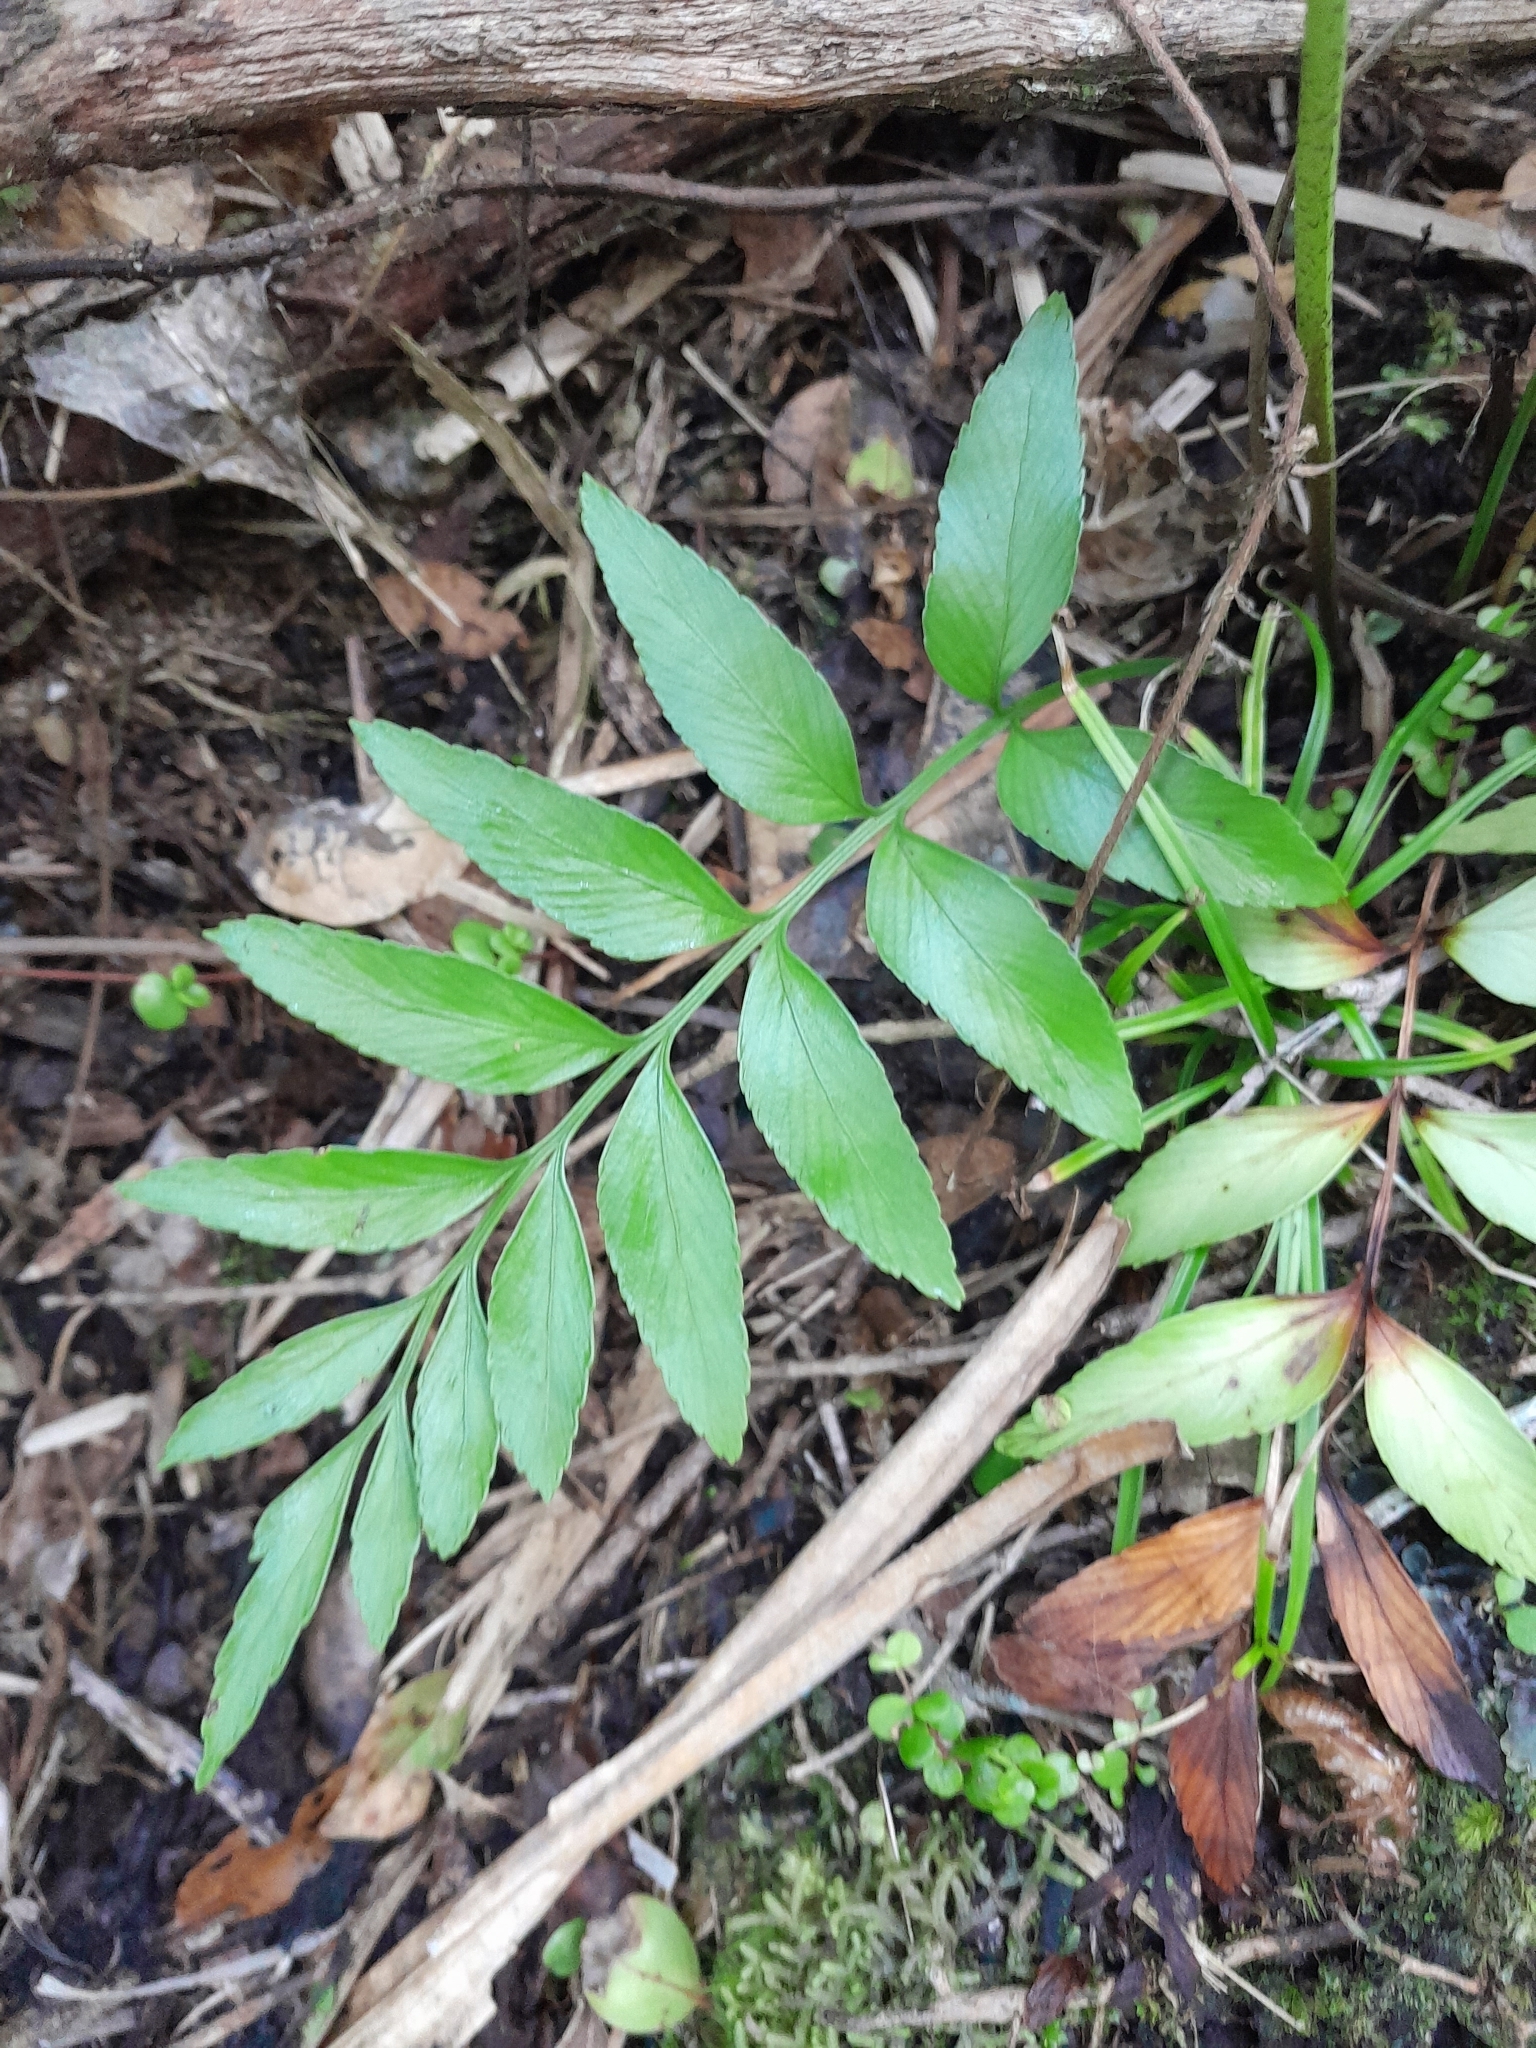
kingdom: Plantae
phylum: Tracheophyta
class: Polypodiopsida
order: Polypodiales
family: Aspleniaceae
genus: Asplenium
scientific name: Asplenium oblongifolium
